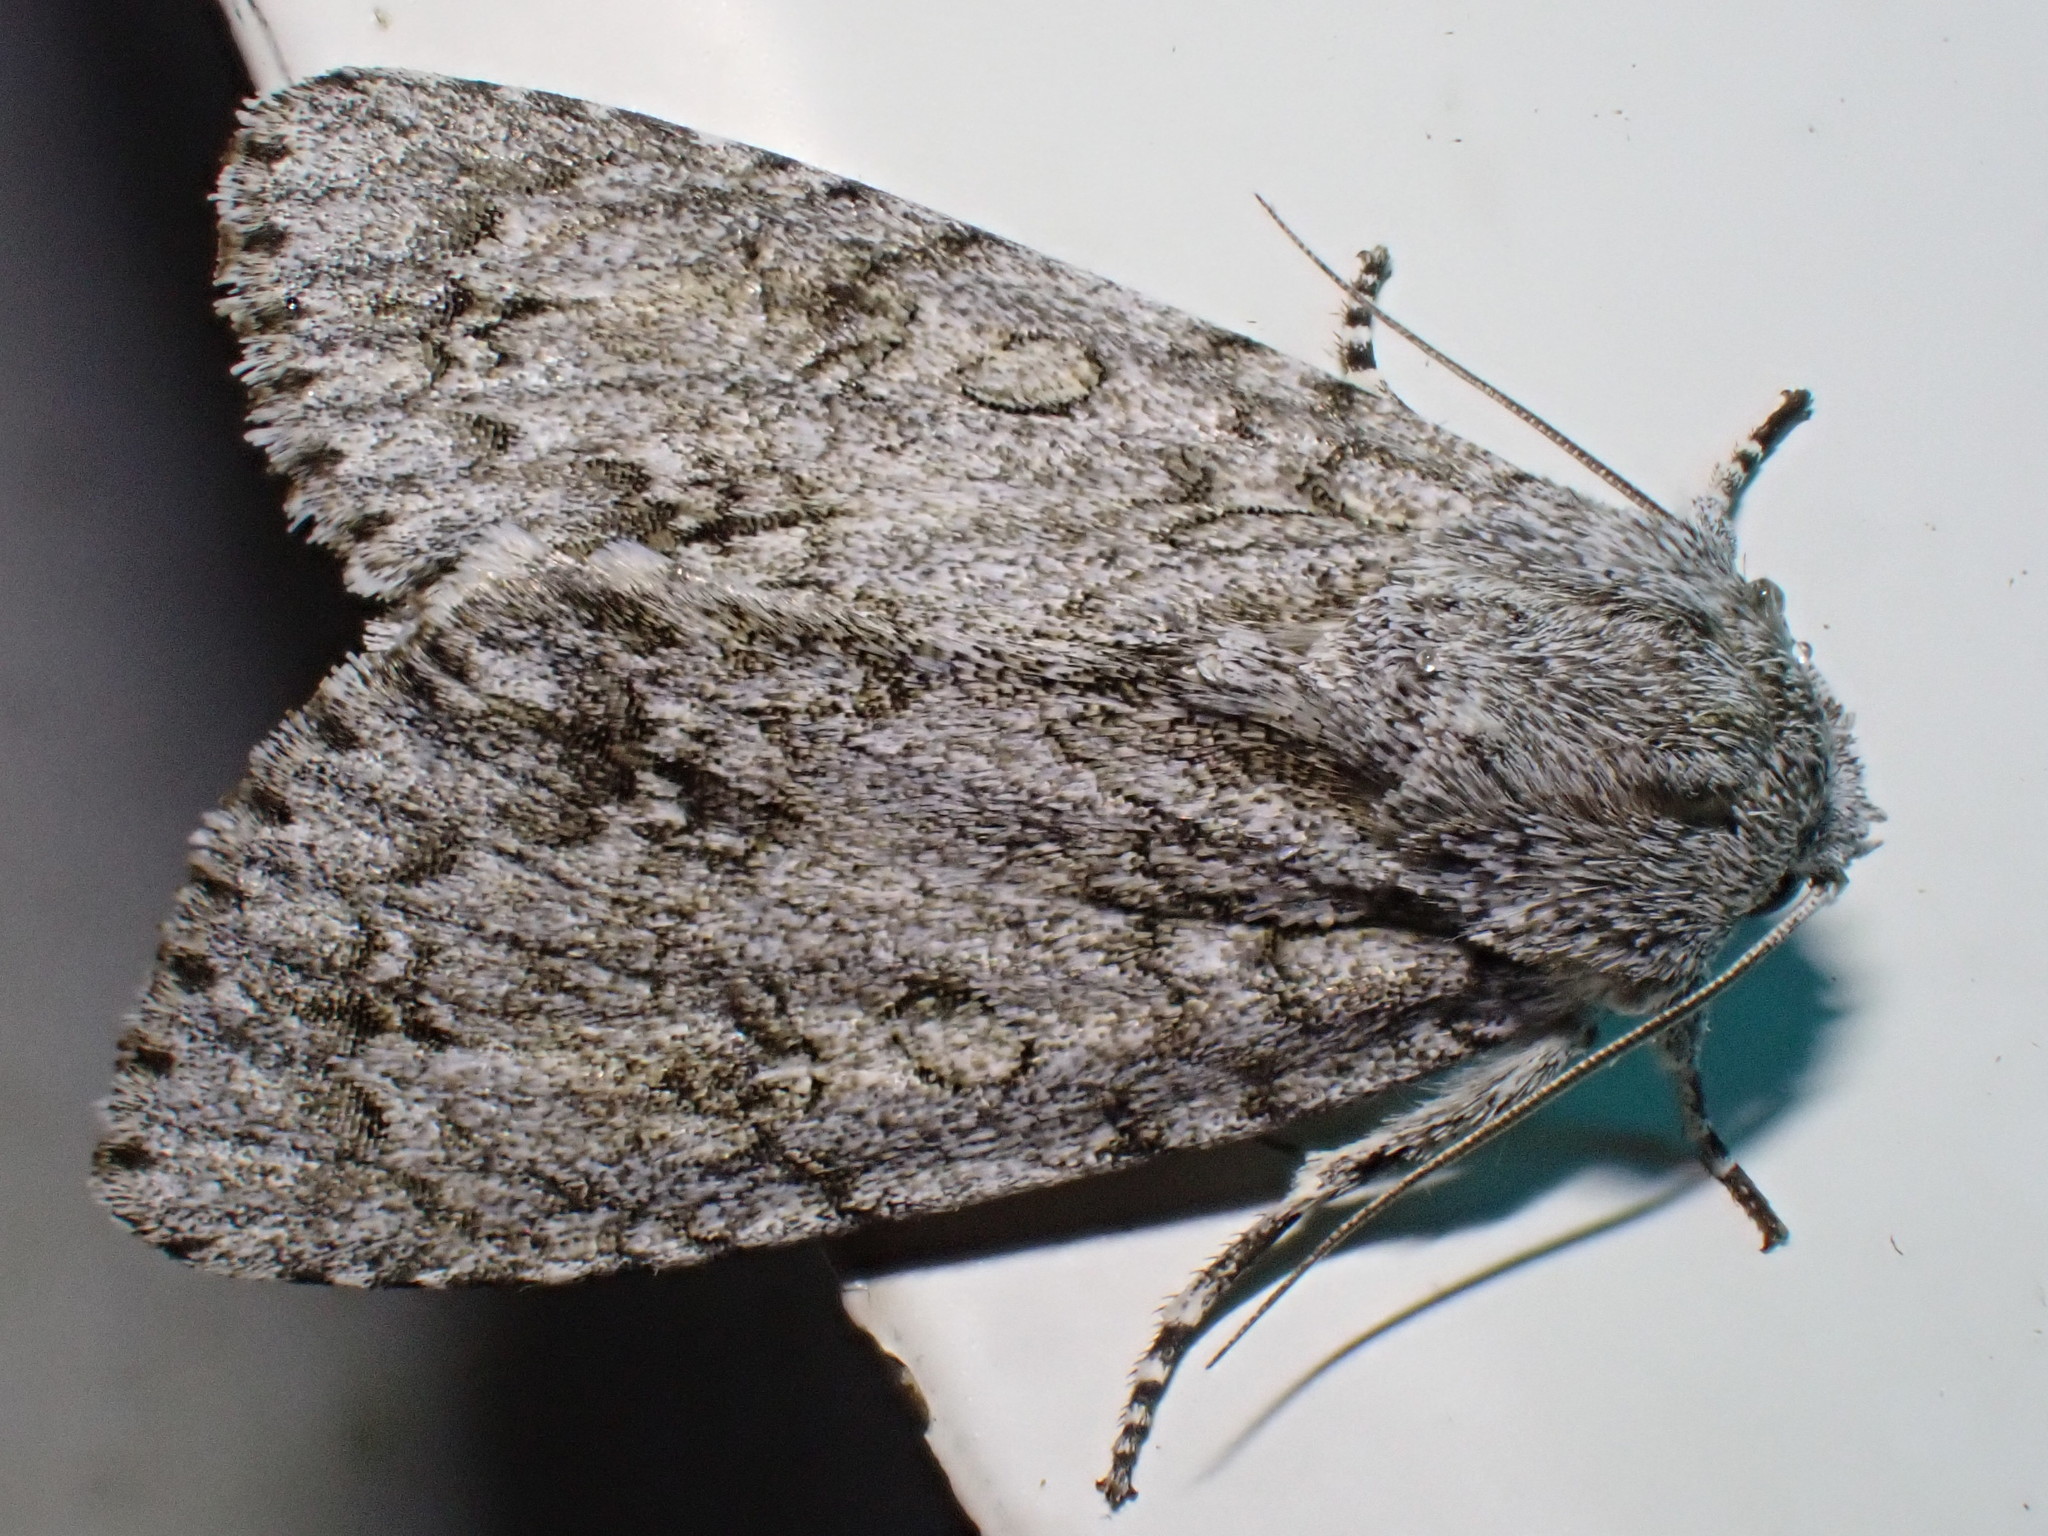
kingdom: Animalia
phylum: Arthropoda
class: Insecta
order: Lepidoptera
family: Noctuidae
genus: Acronicta
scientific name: Acronicta aceris
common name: Sycamore
